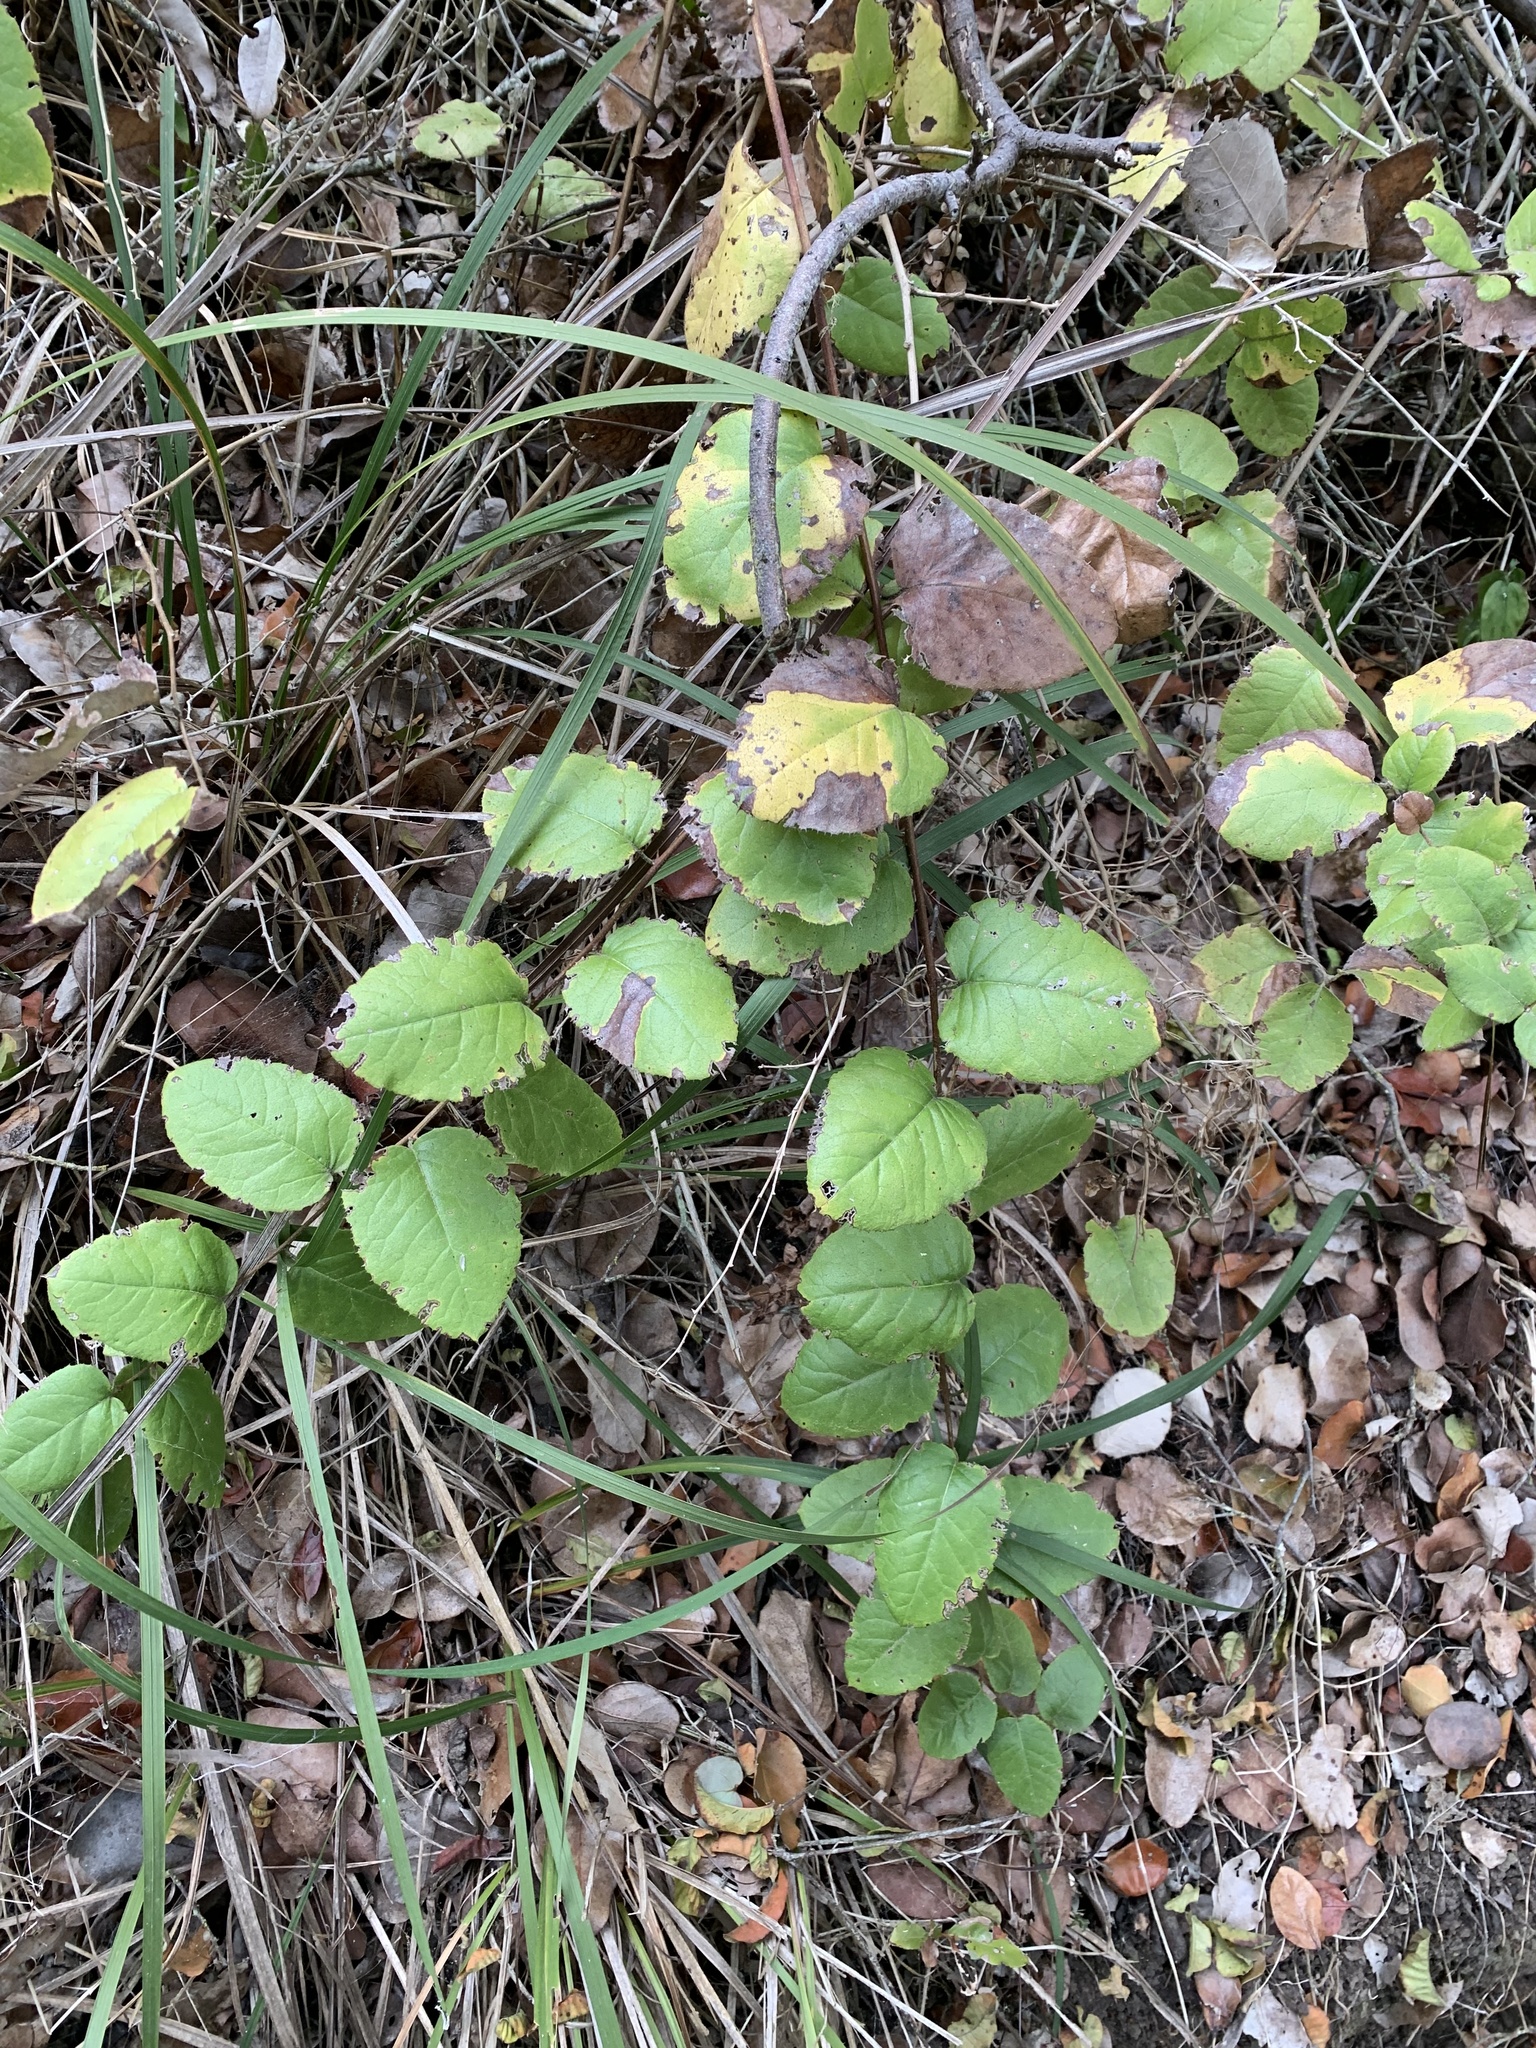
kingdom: Plantae
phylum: Tracheophyta
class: Magnoliopsida
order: Asterales
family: Asteraceae
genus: Proustia
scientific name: Proustia pyrifolia
